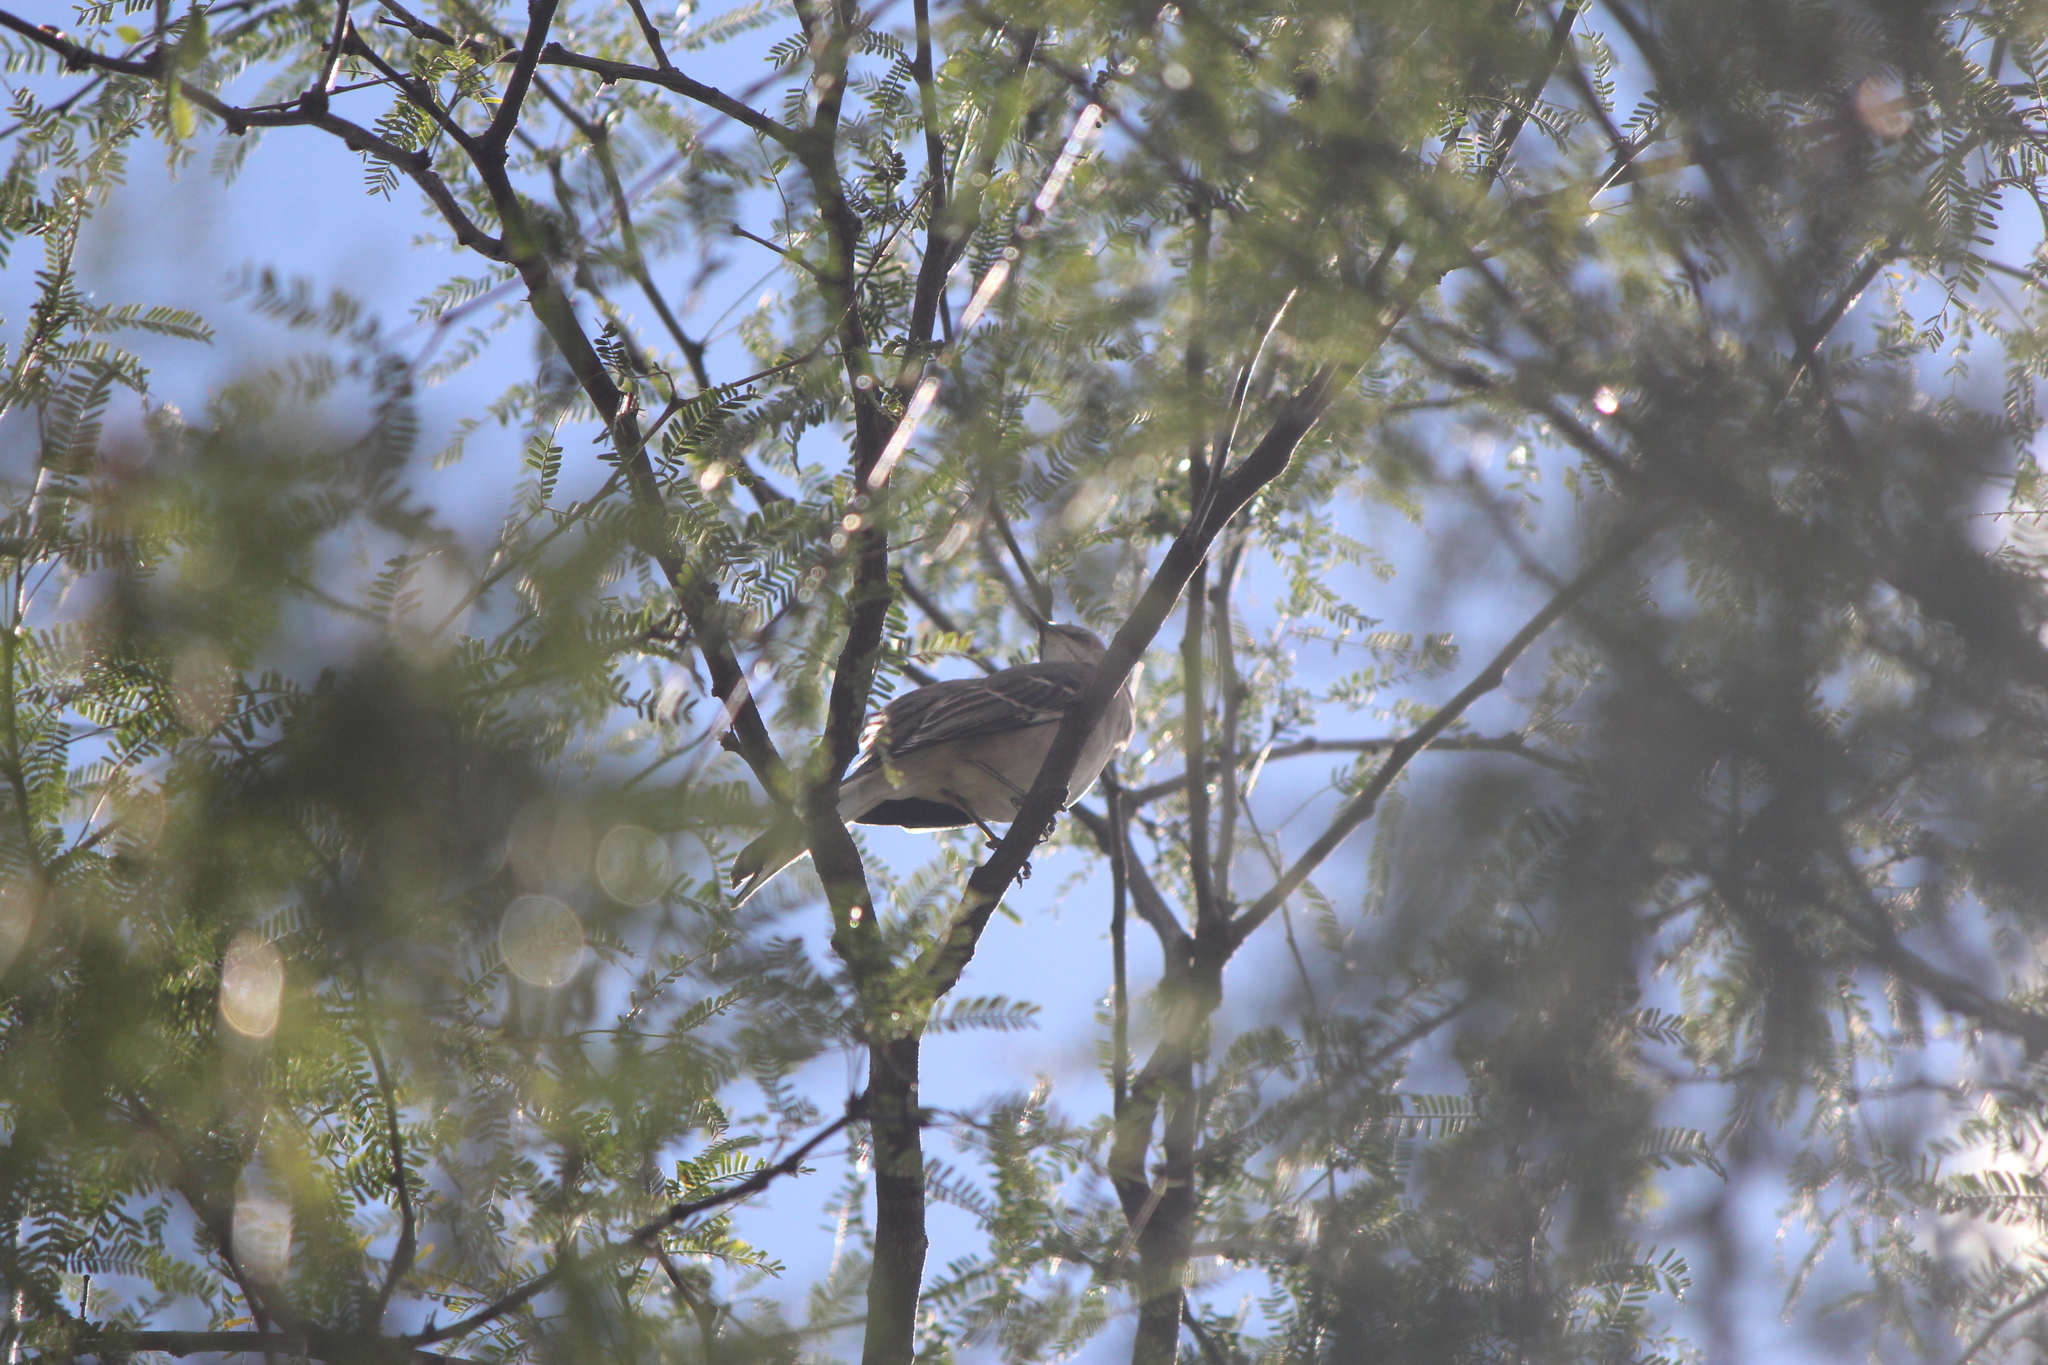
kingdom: Animalia
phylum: Chordata
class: Aves
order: Passeriformes
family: Mimidae
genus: Mimus
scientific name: Mimus polyglottos
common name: Northern mockingbird
